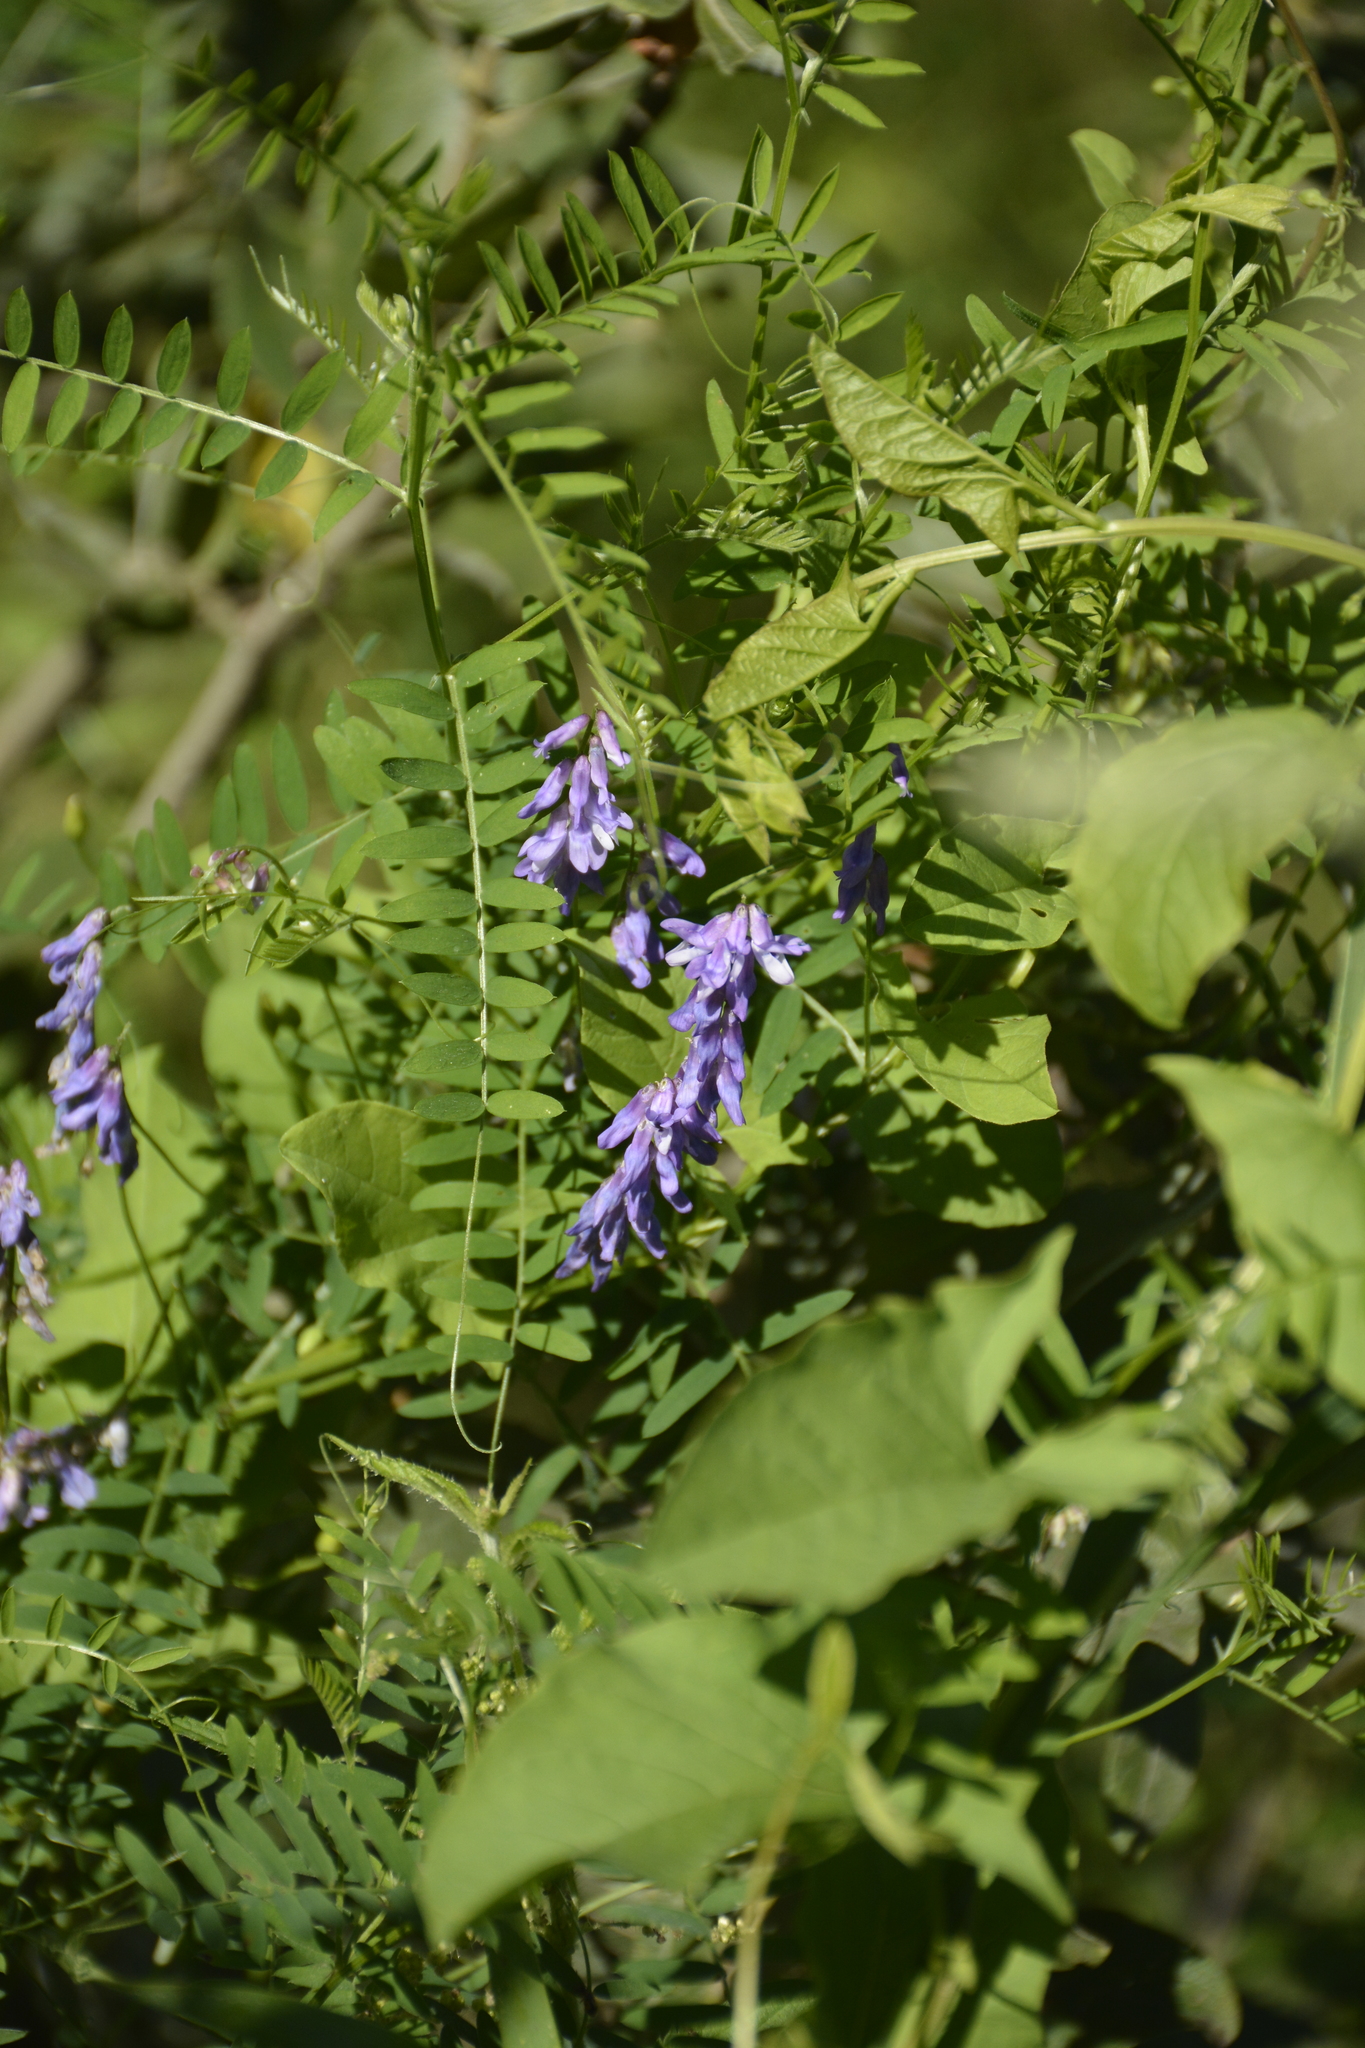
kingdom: Plantae
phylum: Tracheophyta
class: Magnoliopsida
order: Fabales
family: Fabaceae
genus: Vicia
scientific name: Vicia cracca
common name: Bird vetch
